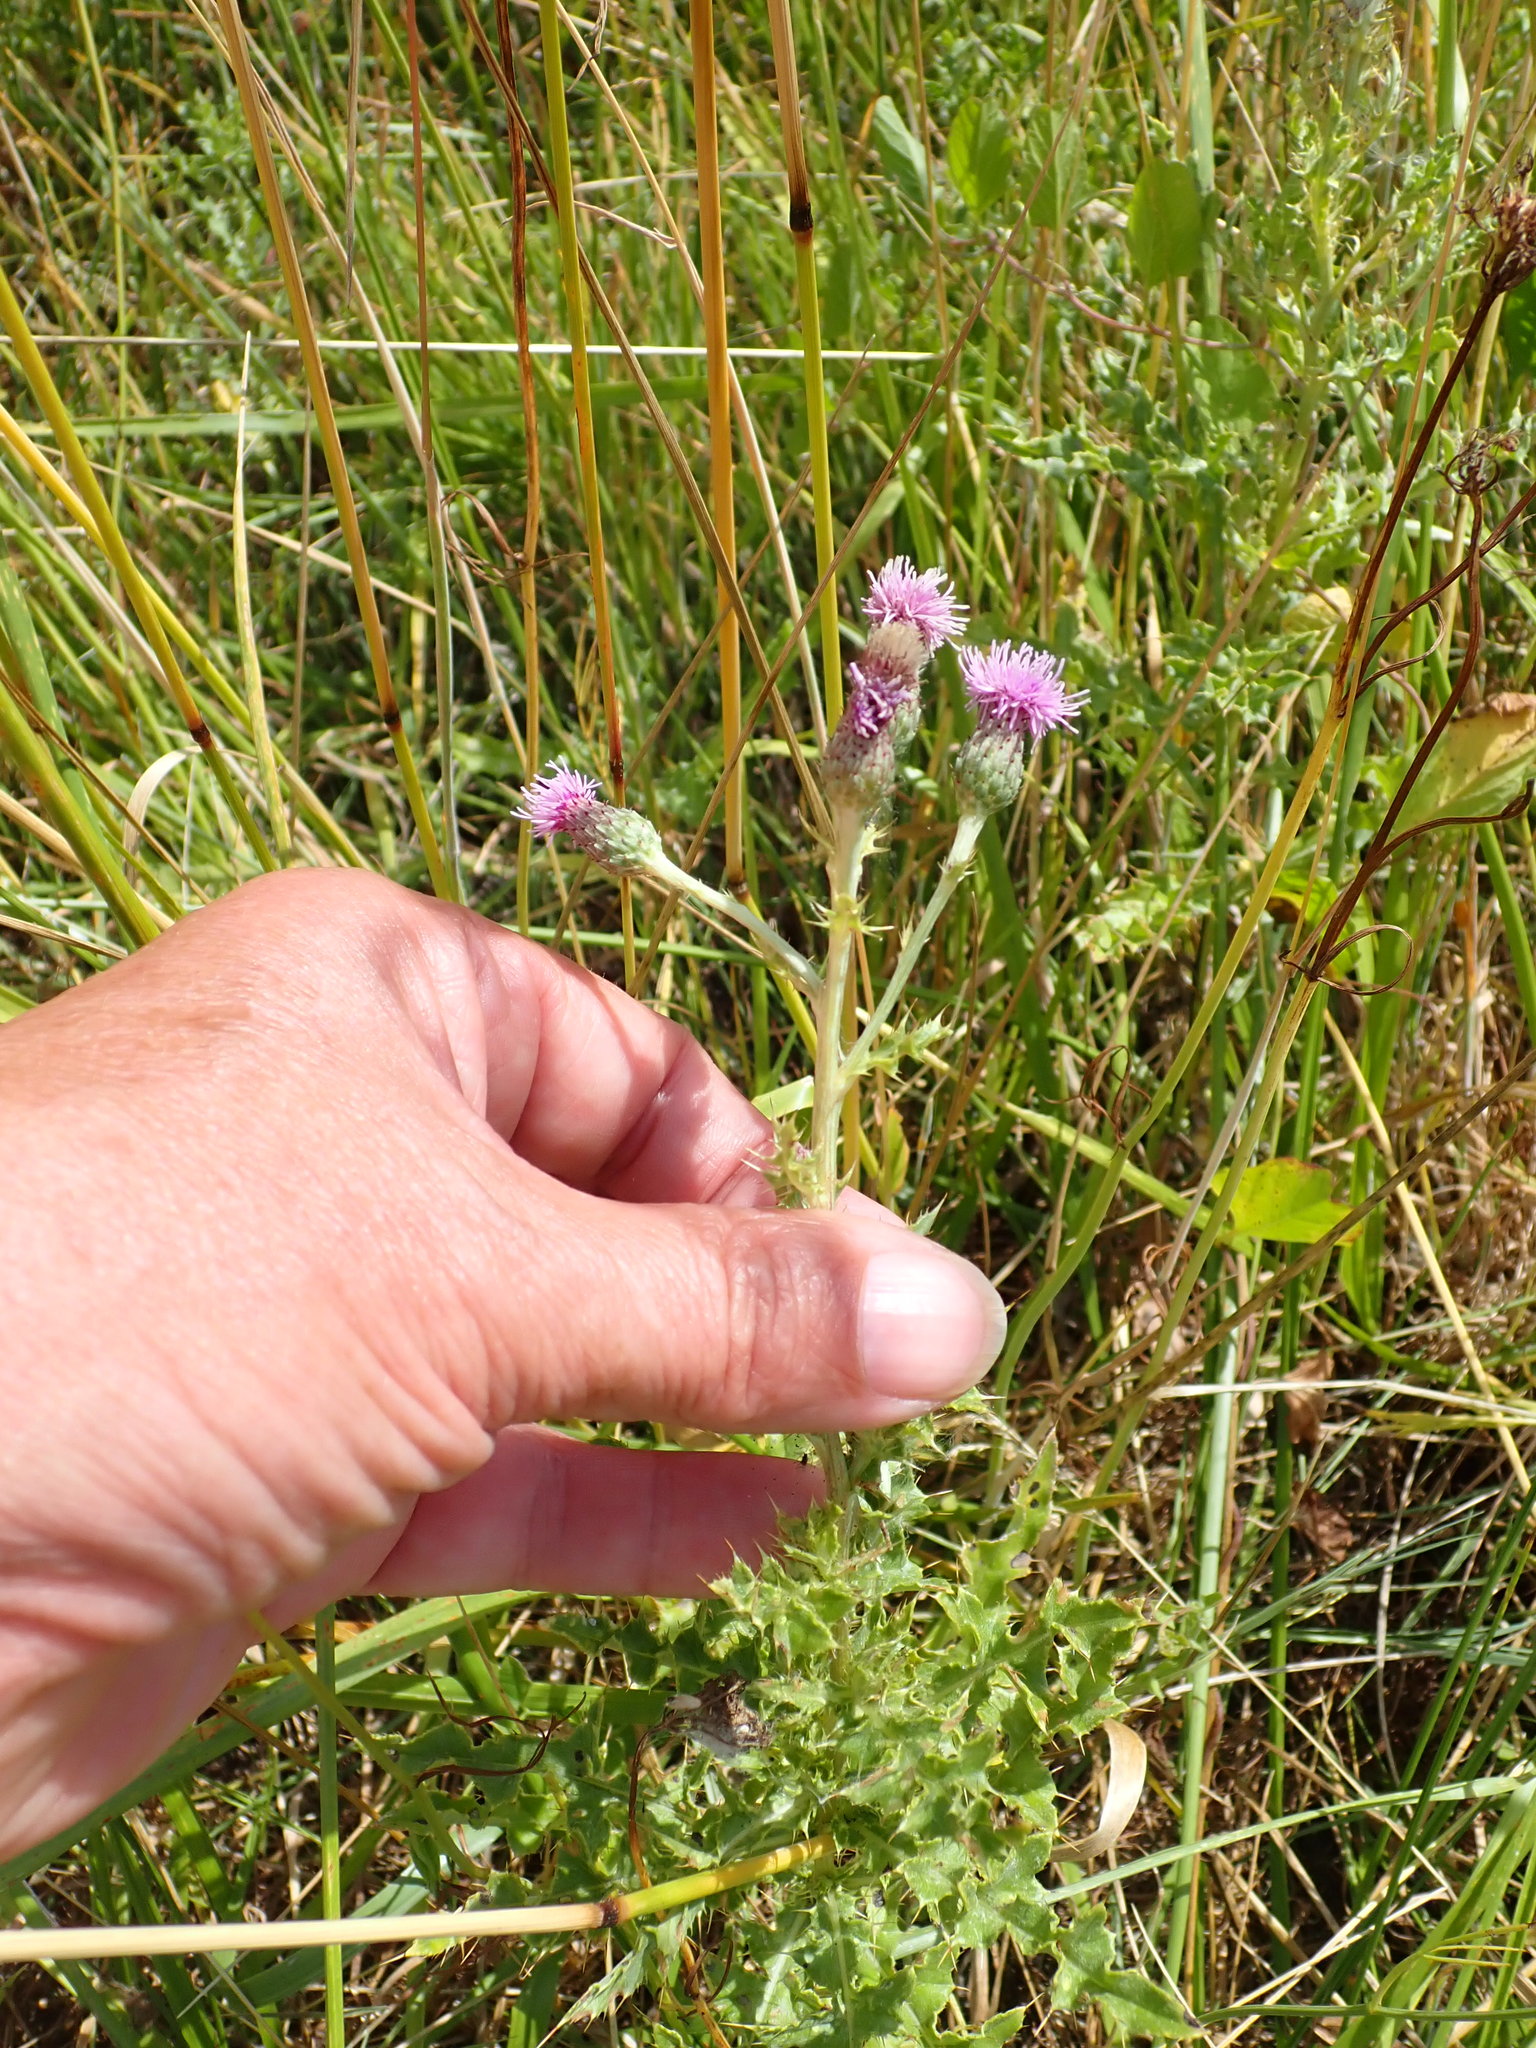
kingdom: Plantae
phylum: Tracheophyta
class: Magnoliopsida
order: Asterales
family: Asteraceae
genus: Cirsium
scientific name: Cirsium arvense
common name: Creeping thistle
